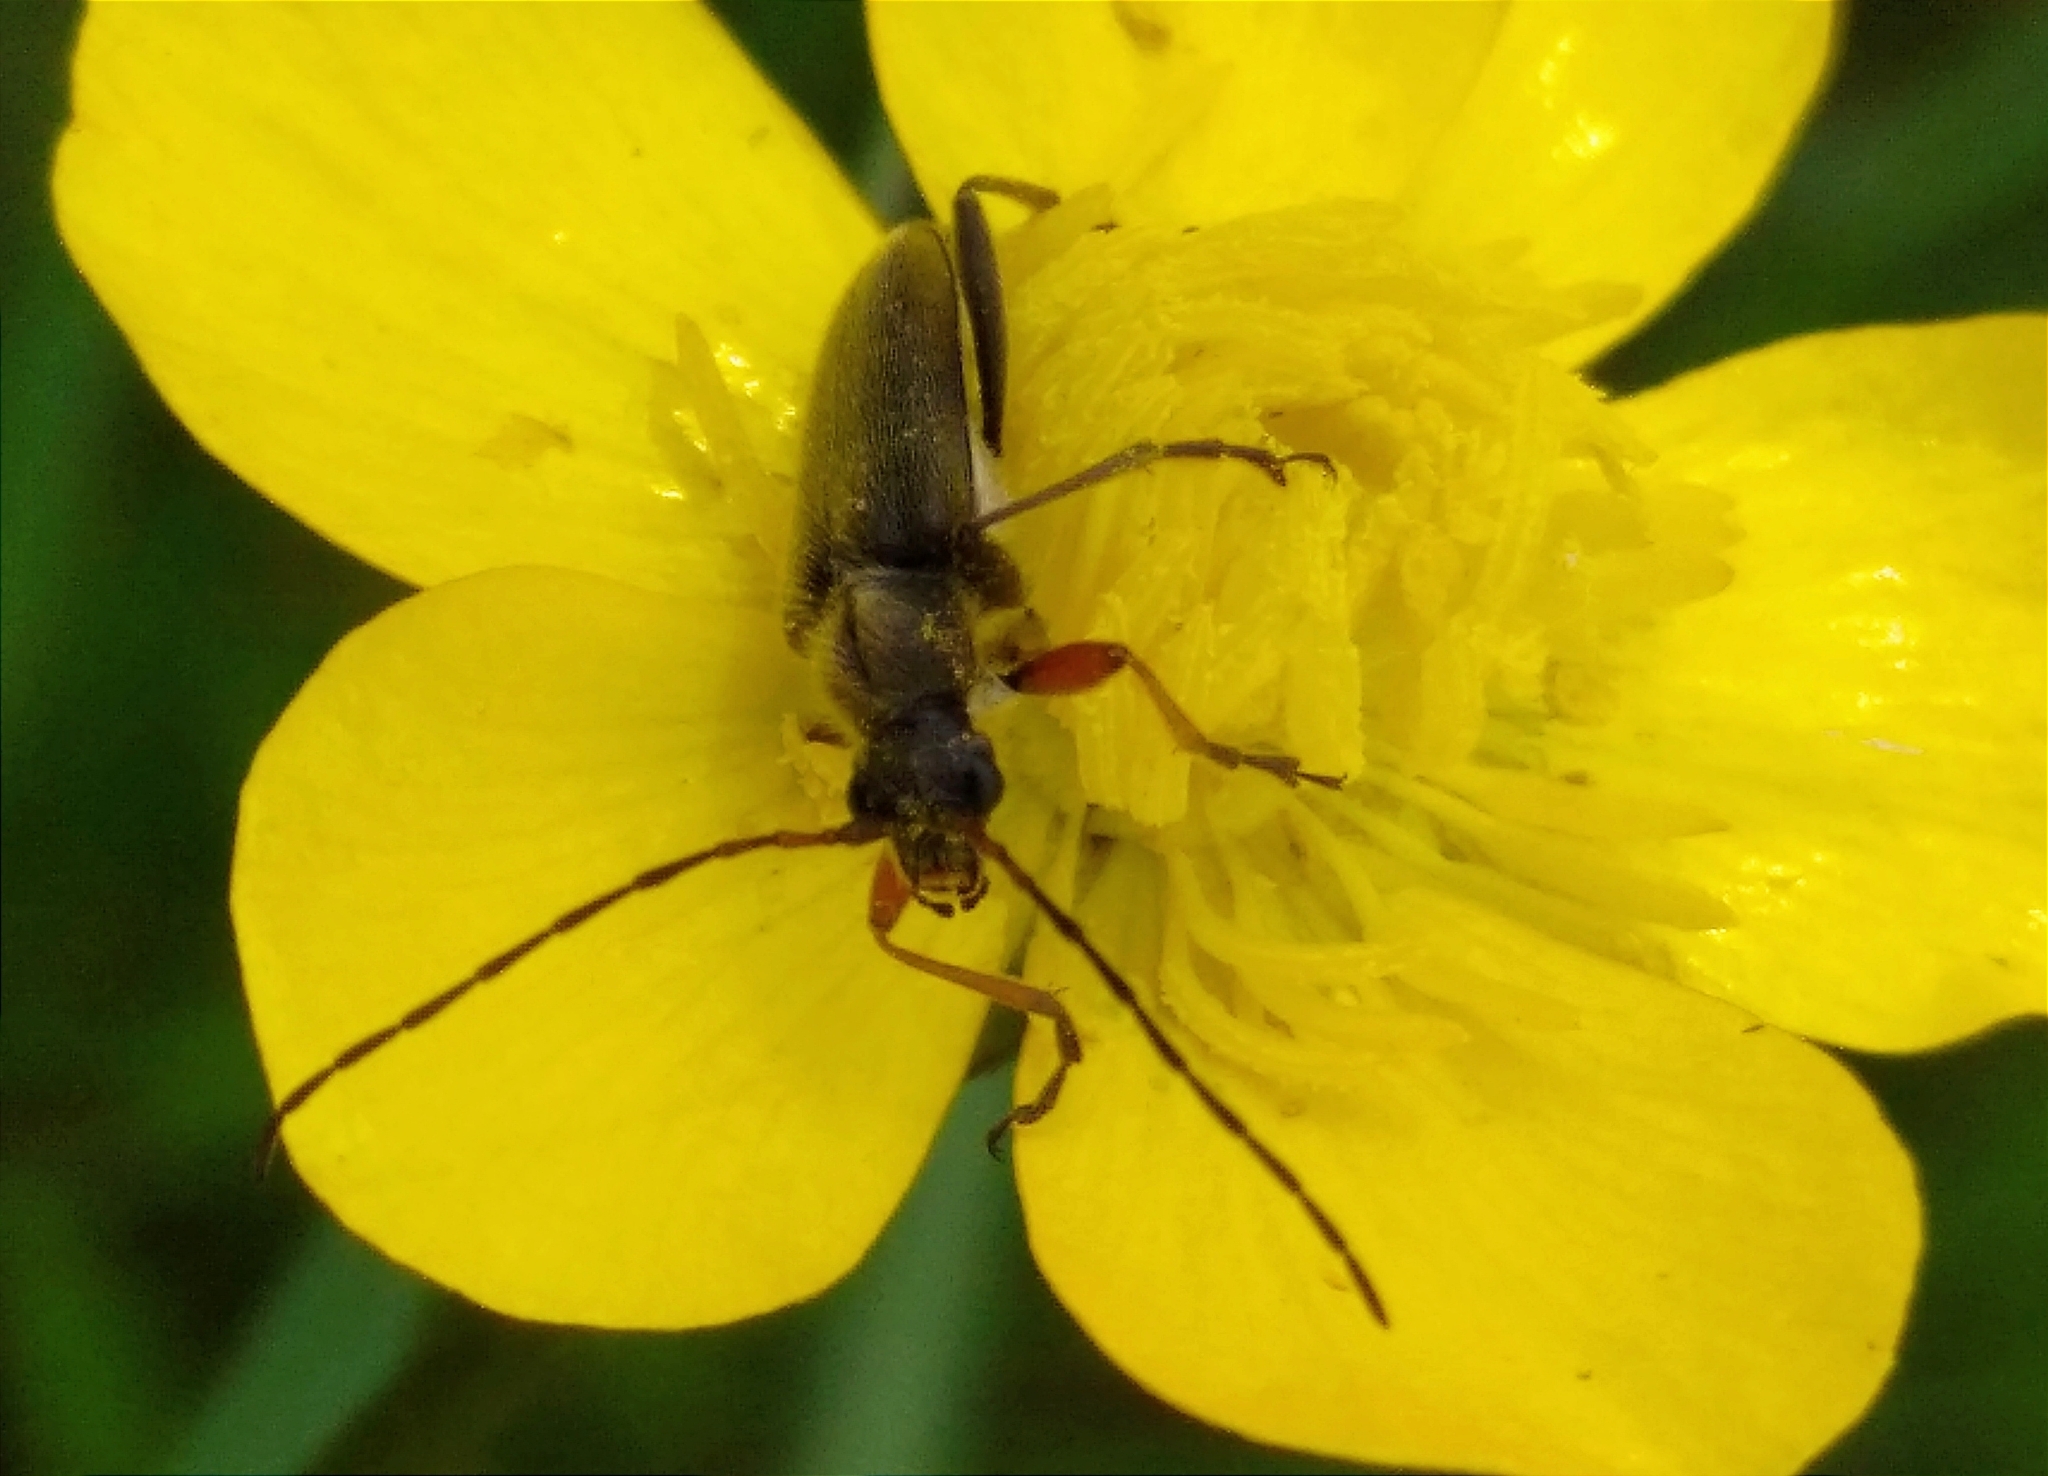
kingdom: Animalia
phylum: Arthropoda
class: Insecta
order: Coleoptera
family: Cerambycidae
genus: Cortodera
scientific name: Cortodera flavimana
